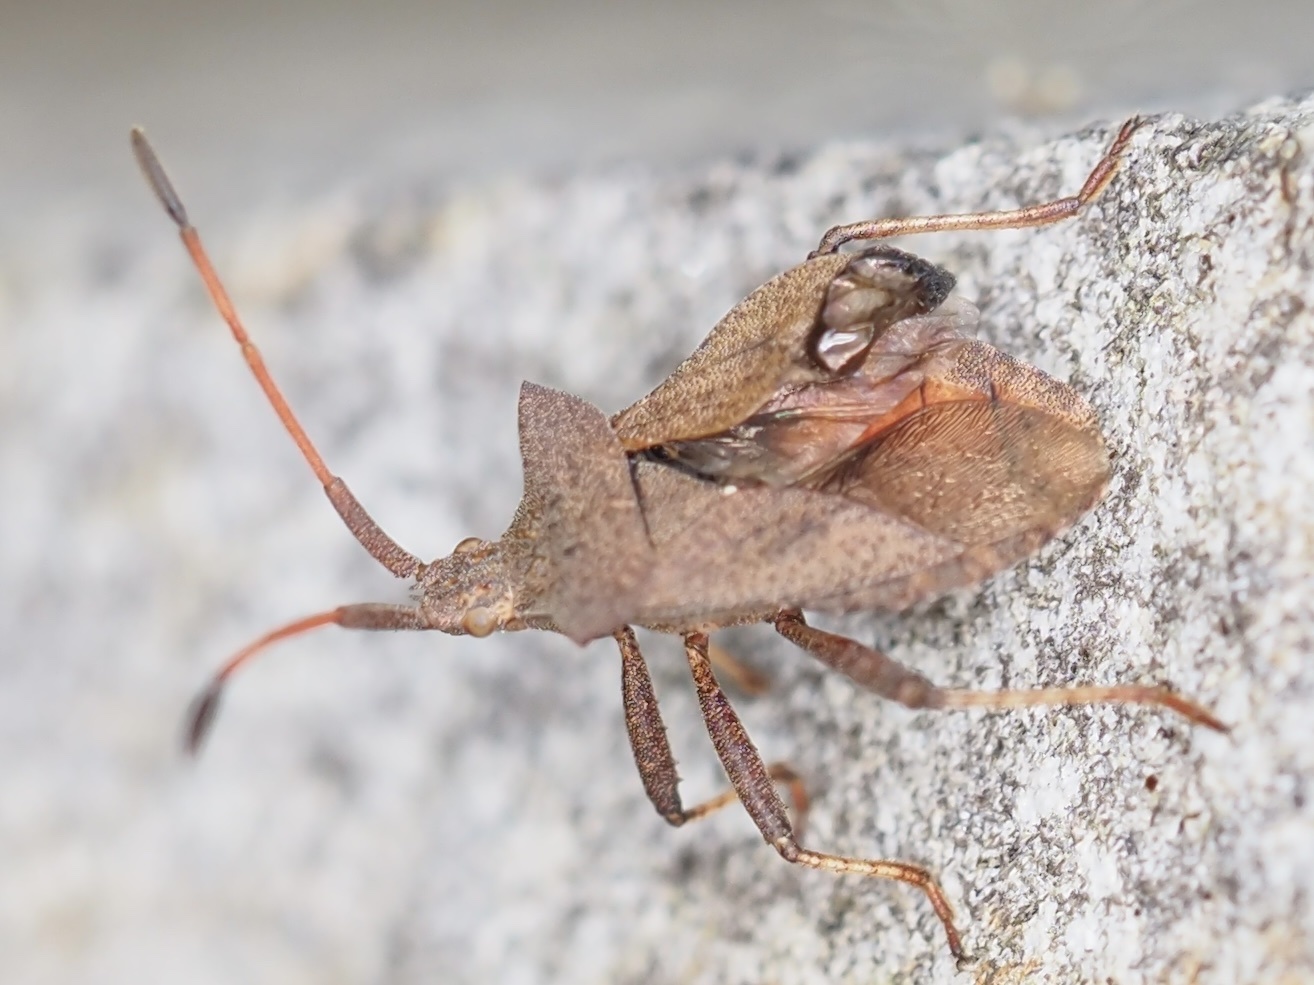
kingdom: Animalia
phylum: Arthropoda
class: Insecta
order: Hemiptera
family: Coreidae
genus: Coreus
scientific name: Coreus marginatus
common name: Dock bug
